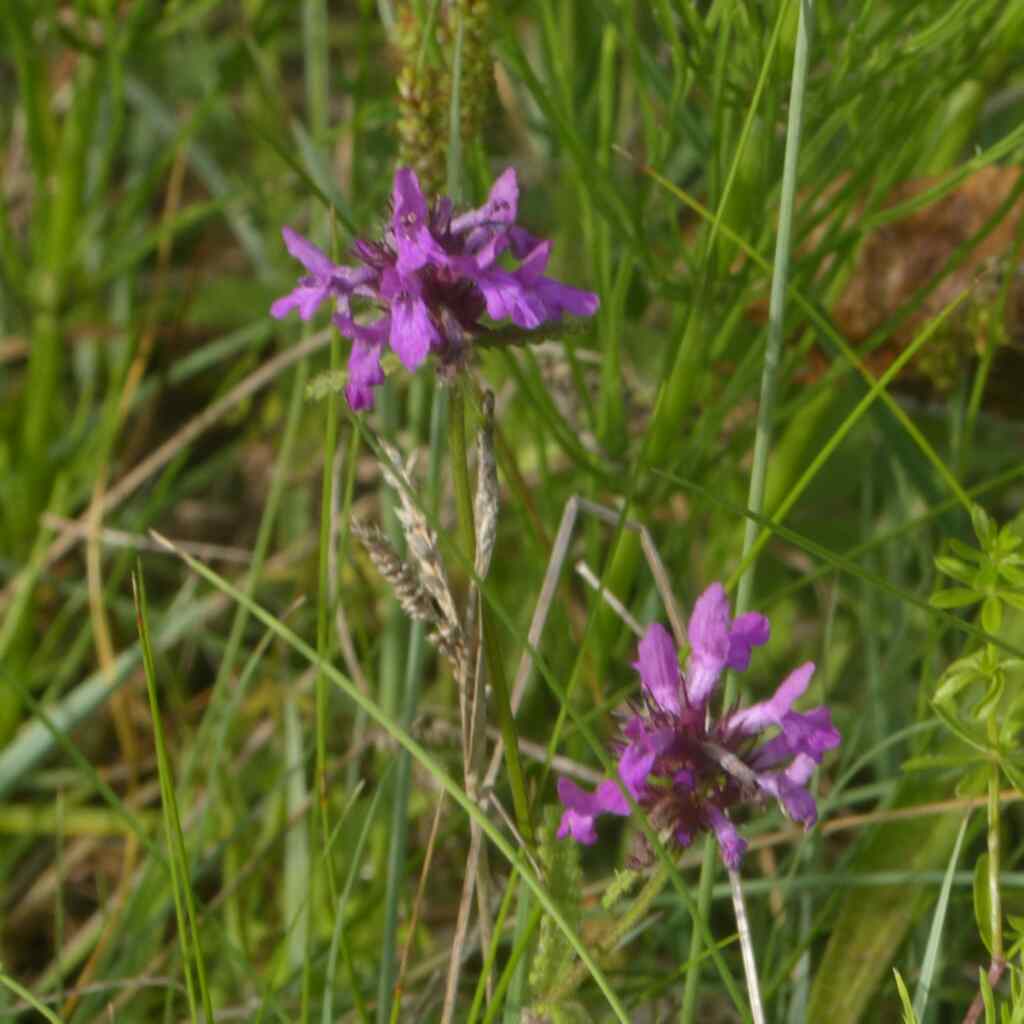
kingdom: Plantae
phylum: Tracheophyta
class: Magnoliopsida
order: Lamiales
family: Lamiaceae
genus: Betonica
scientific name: Betonica officinalis
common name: Bishop's-wort
